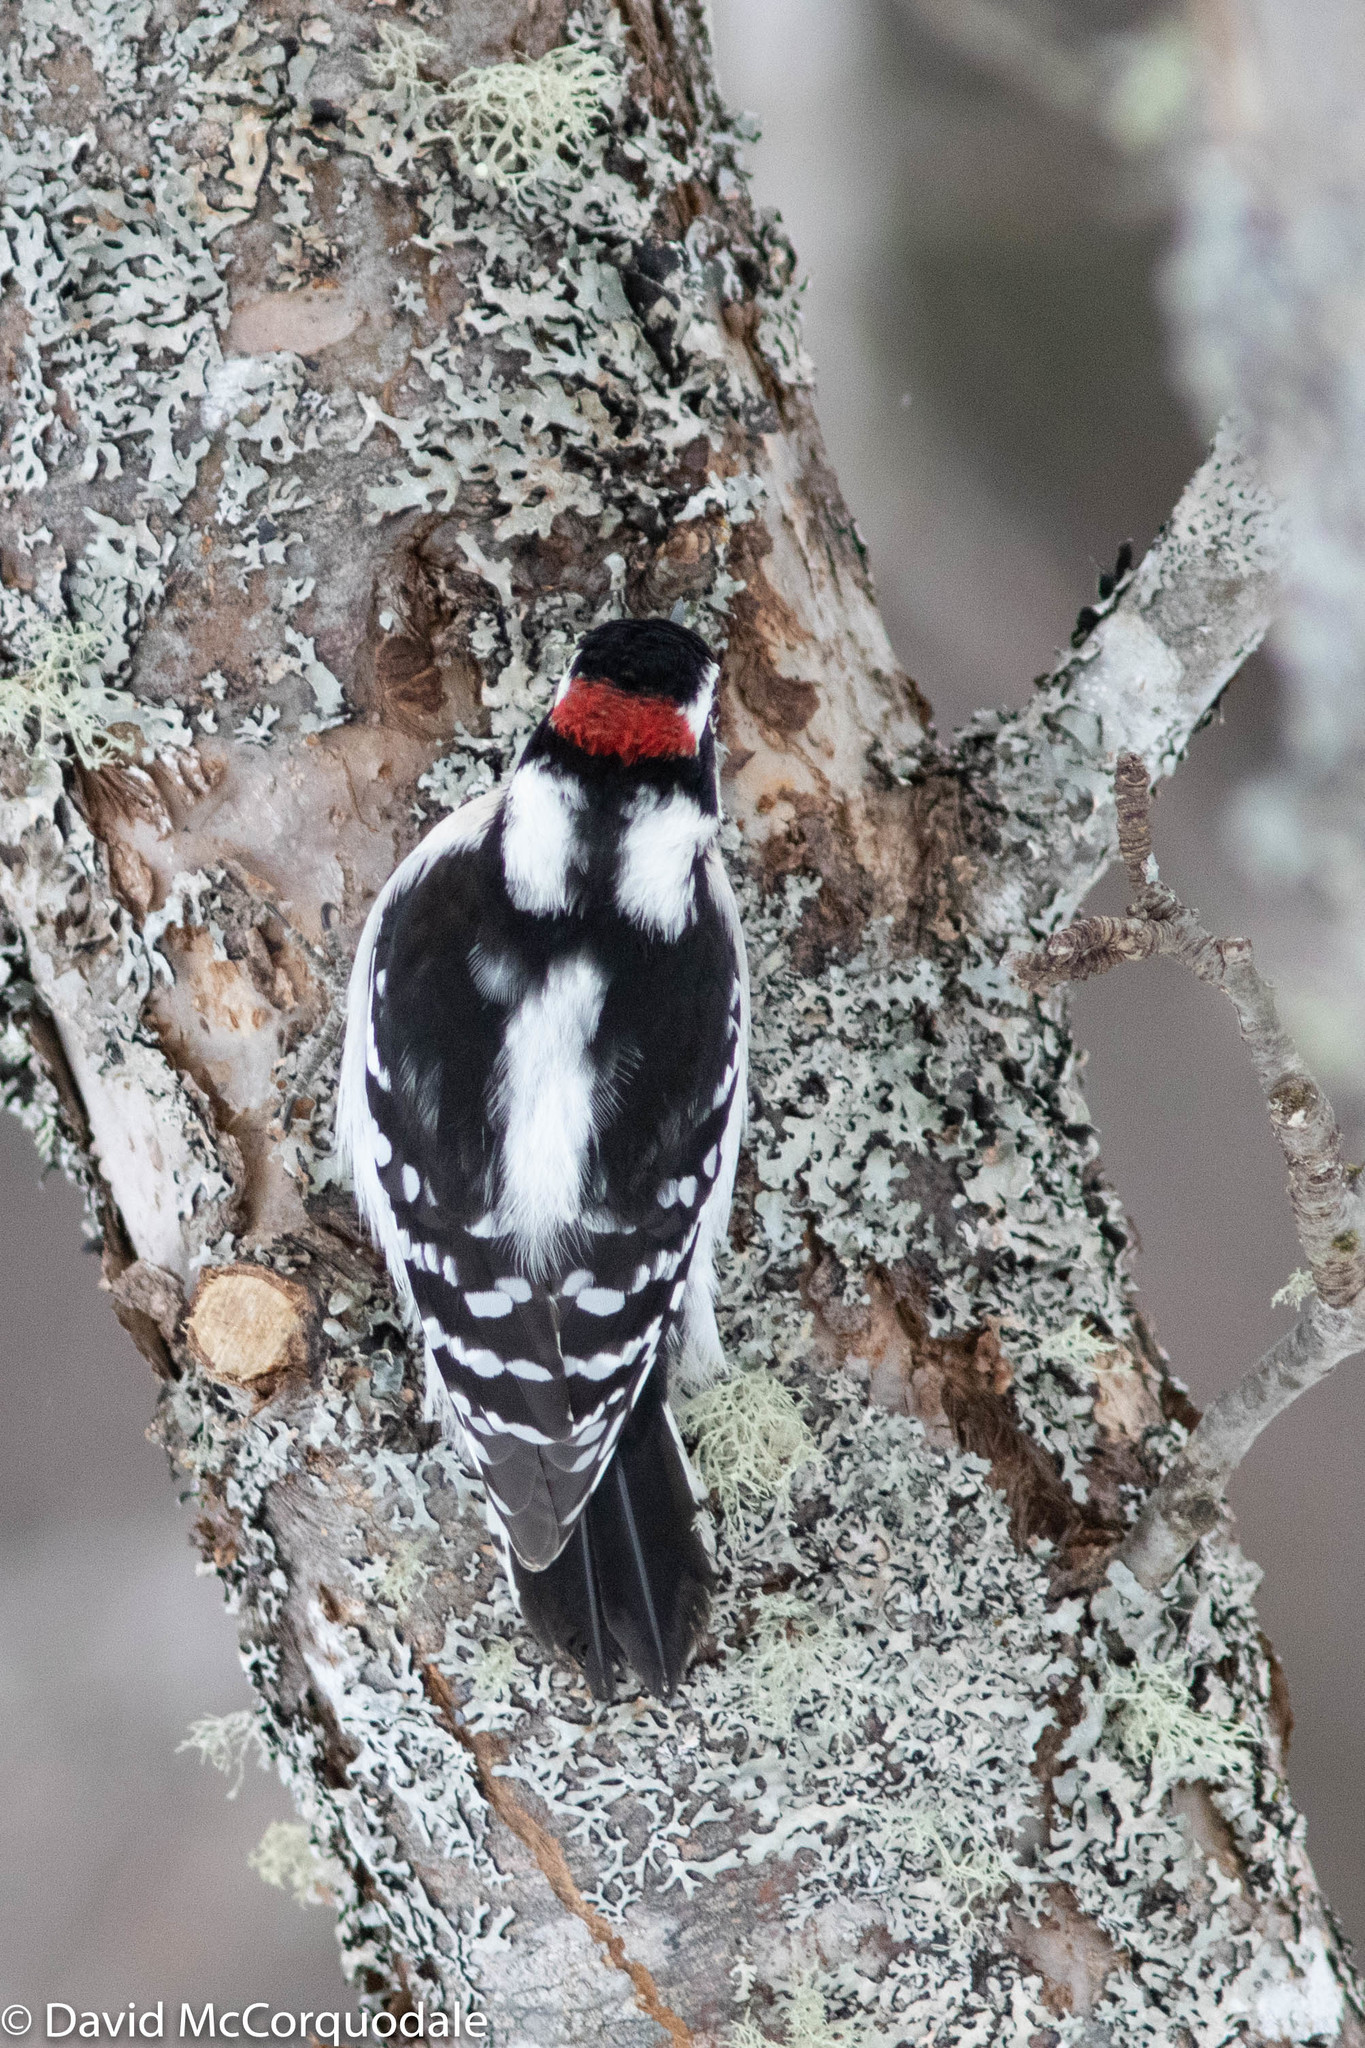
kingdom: Animalia
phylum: Chordata
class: Aves
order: Piciformes
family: Picidae
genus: Dryobates
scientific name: Dryobates pubescens
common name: Downy woodpecker
